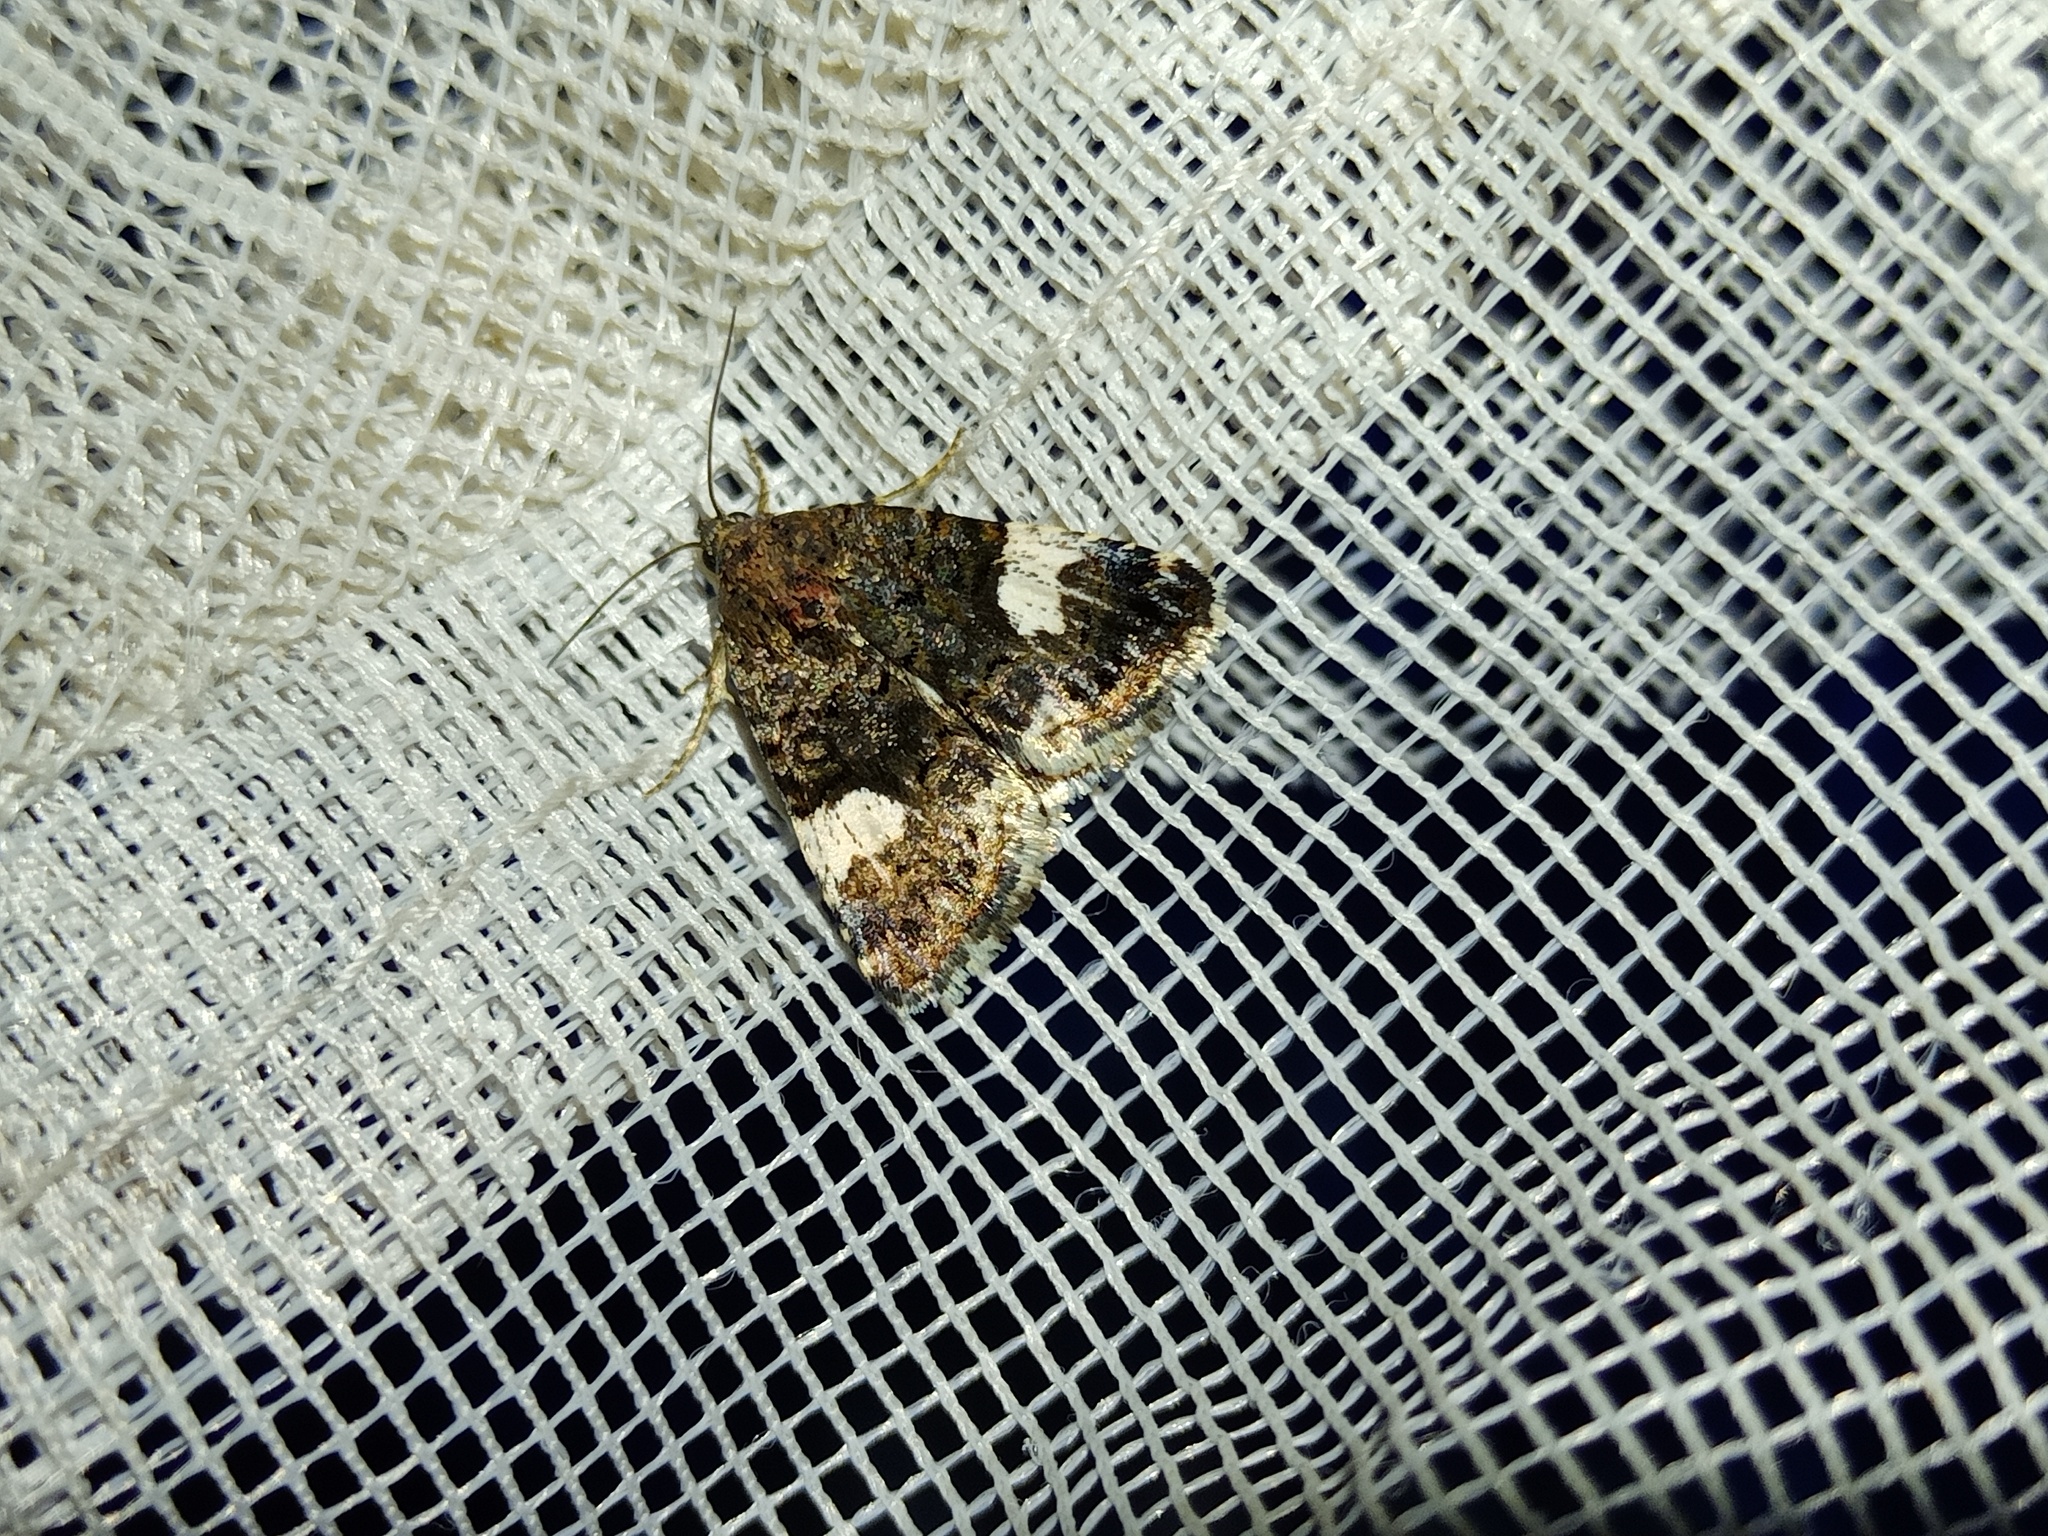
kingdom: Animalia
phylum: Arthropoda
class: Insecta
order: Lepidoptera
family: Erebidae
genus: Tyta
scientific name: Tyta luctuosa
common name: Four-spotted
